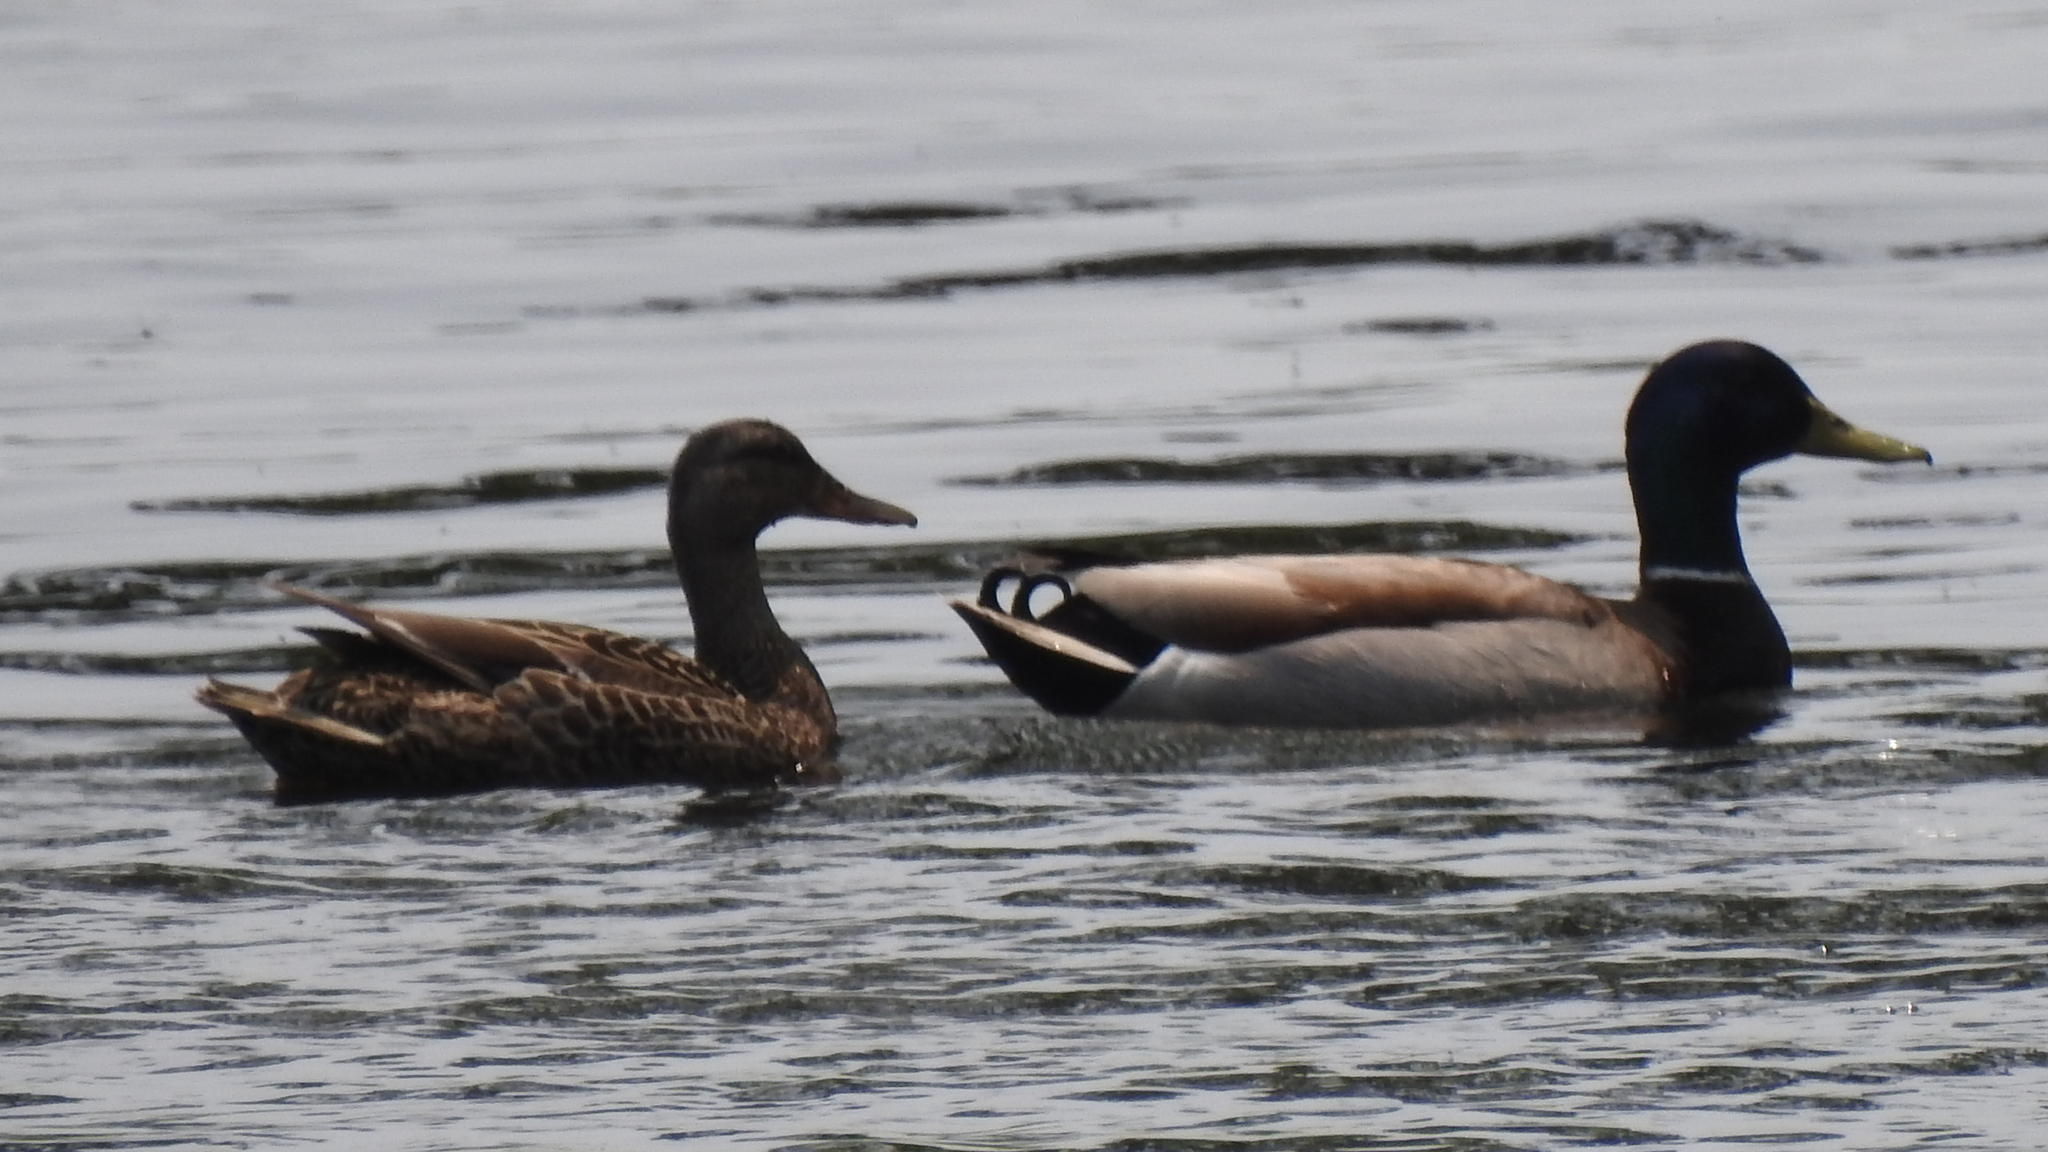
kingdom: Animalia
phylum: Chordata
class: Aves
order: Anseriformes
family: Anatidae
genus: Anas
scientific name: Anas platyrhynchos
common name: Mallard
